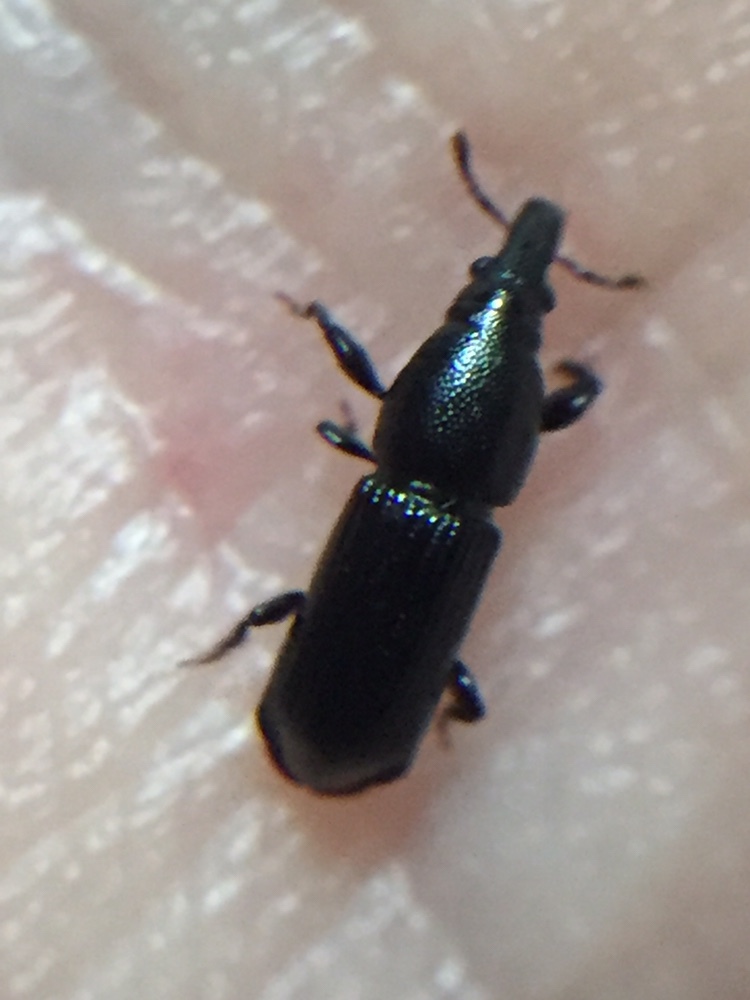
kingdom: Animalia
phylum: Arthropoda
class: Insecta
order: Coleoptera
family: Curculionidae
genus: Torostoma
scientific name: Torostoma apicale
